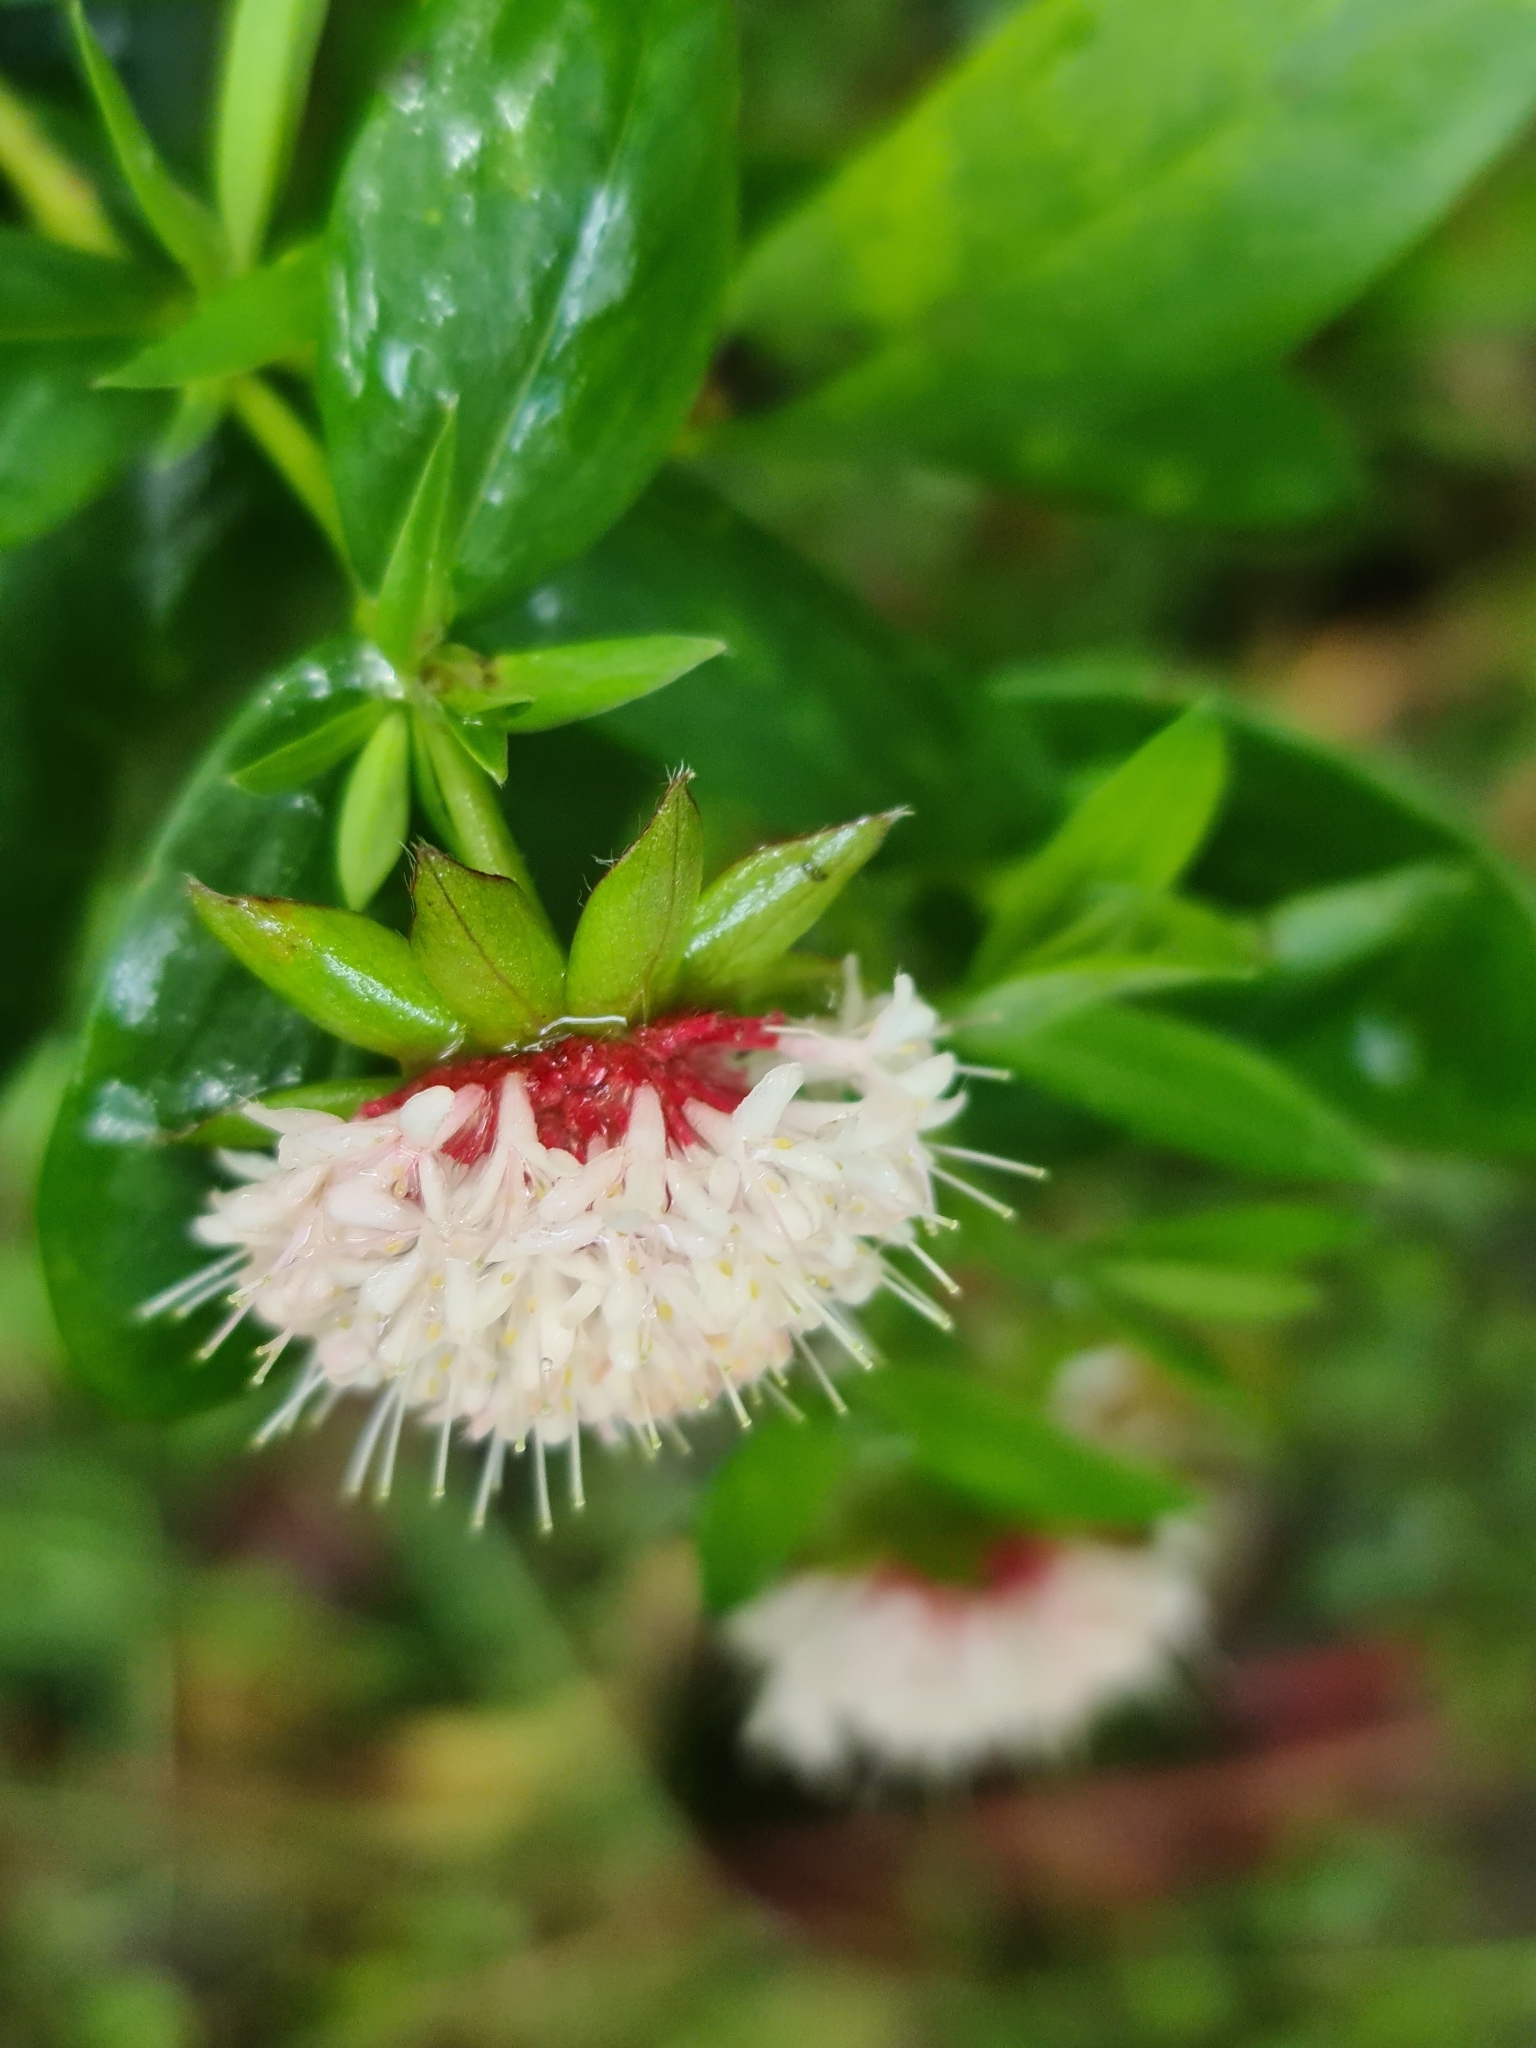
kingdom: Plantae
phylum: Tracheophyta
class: Magnoliopsida
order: Malvales
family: Thymelaeaceae
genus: Pimelea
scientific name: Pimelea ligustrina
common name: Tall riceflower
